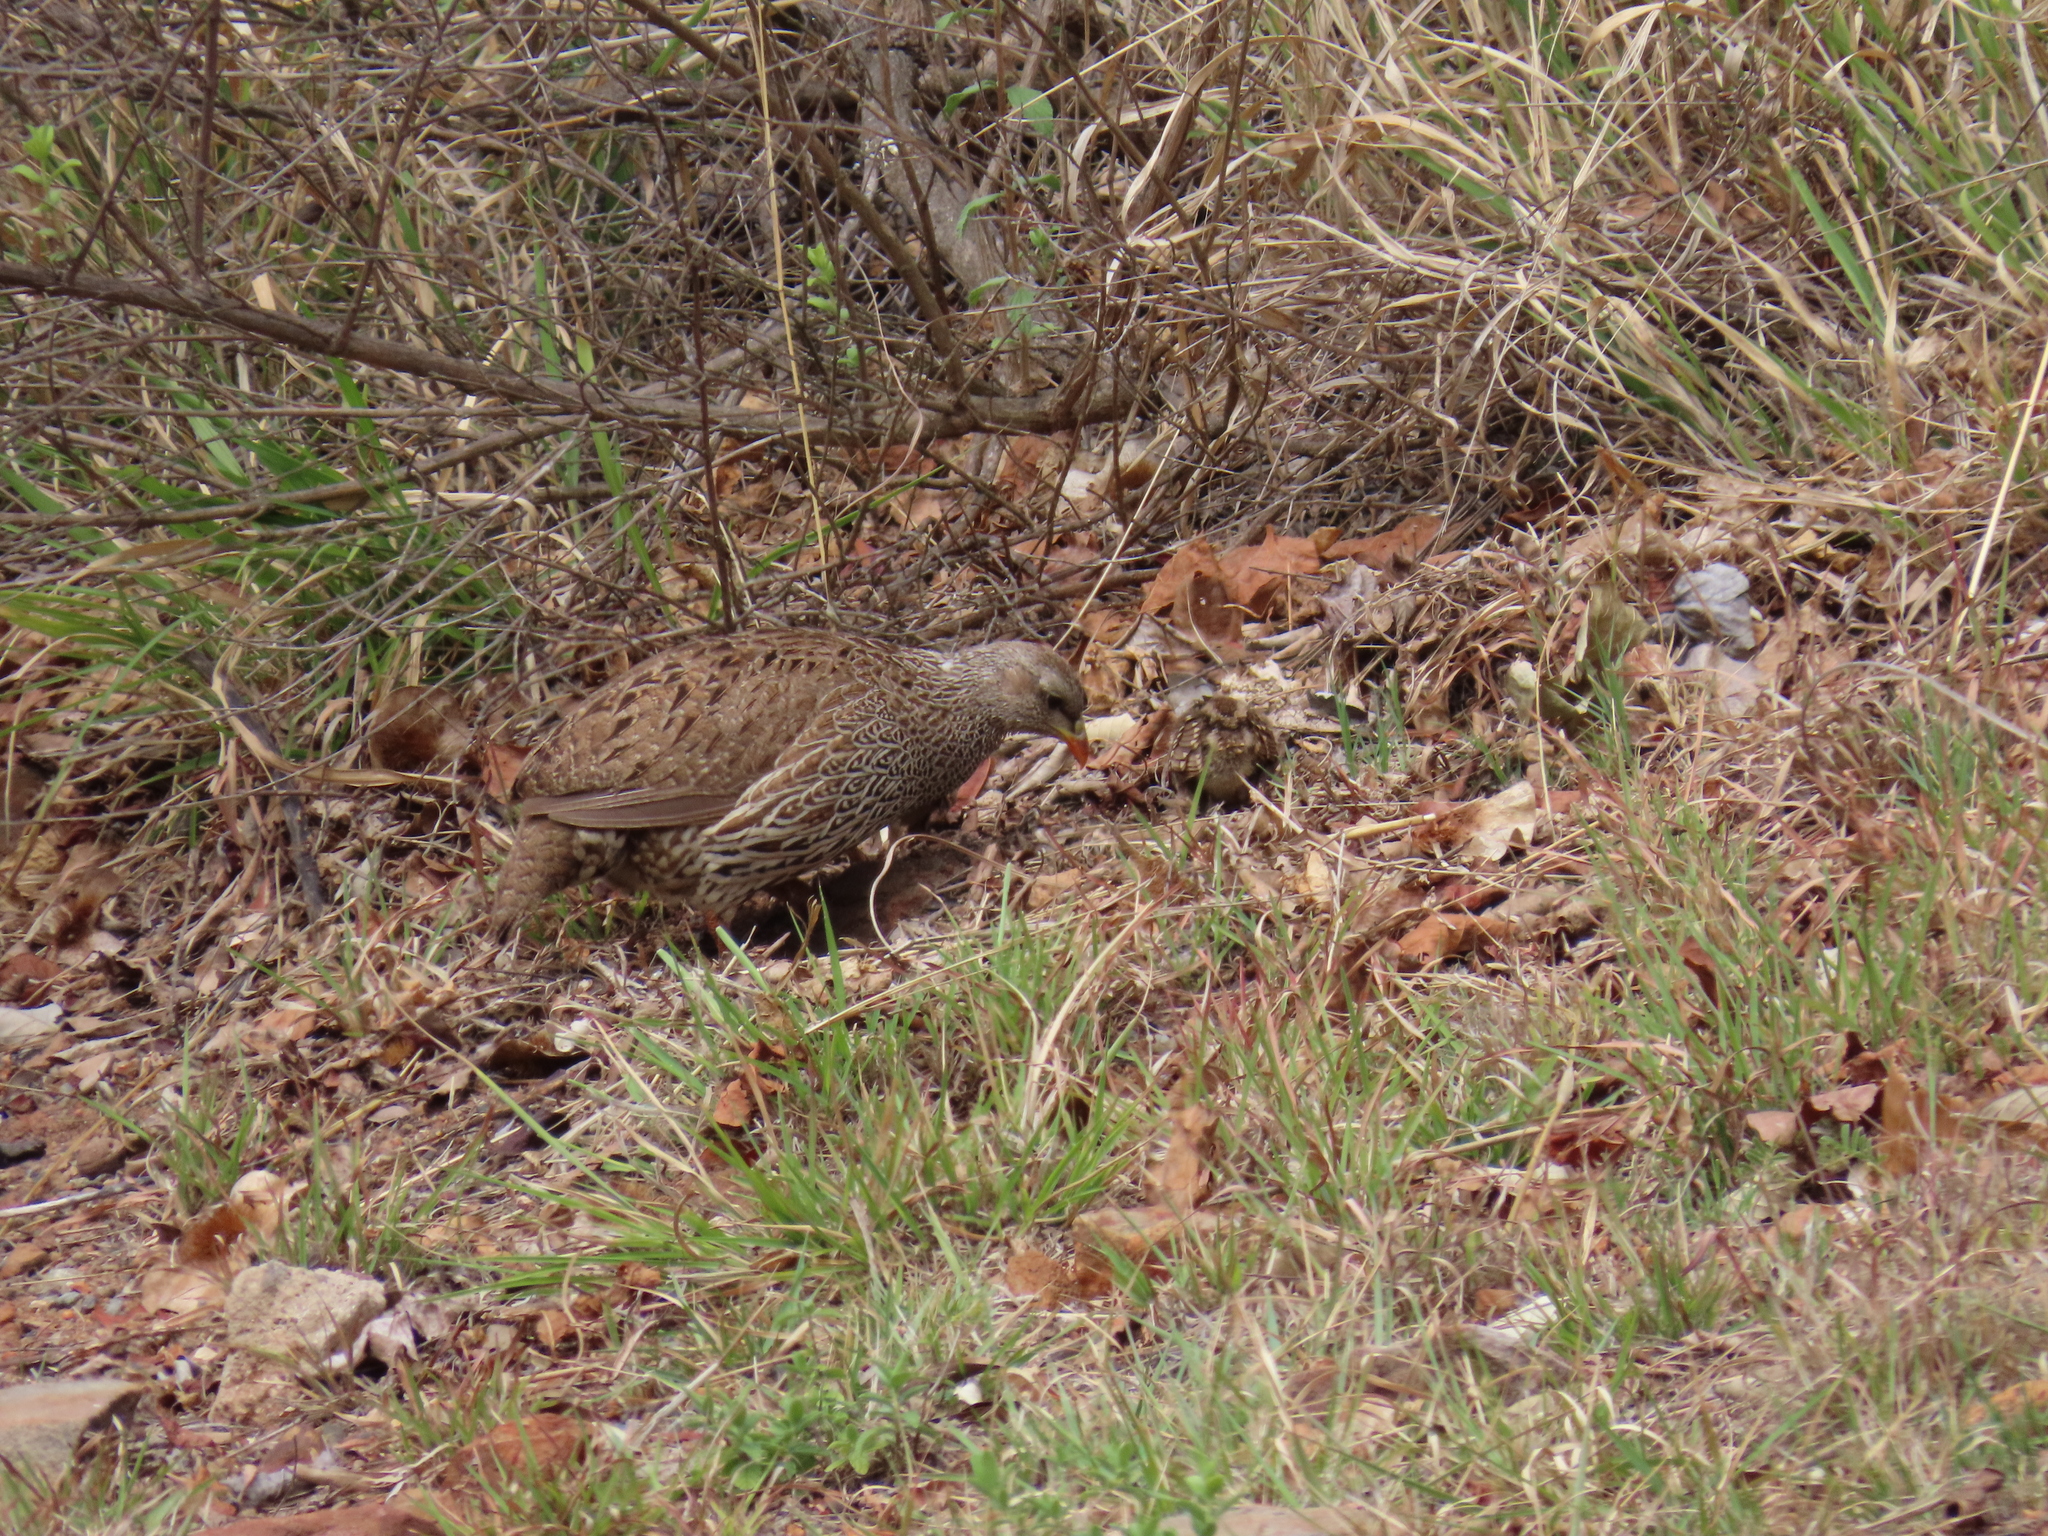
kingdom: Animalia
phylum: Chordata
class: Aves
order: Galliformes
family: Phasianidae
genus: Pternistis
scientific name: Pternistis natalensis
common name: Natal spurfowl
